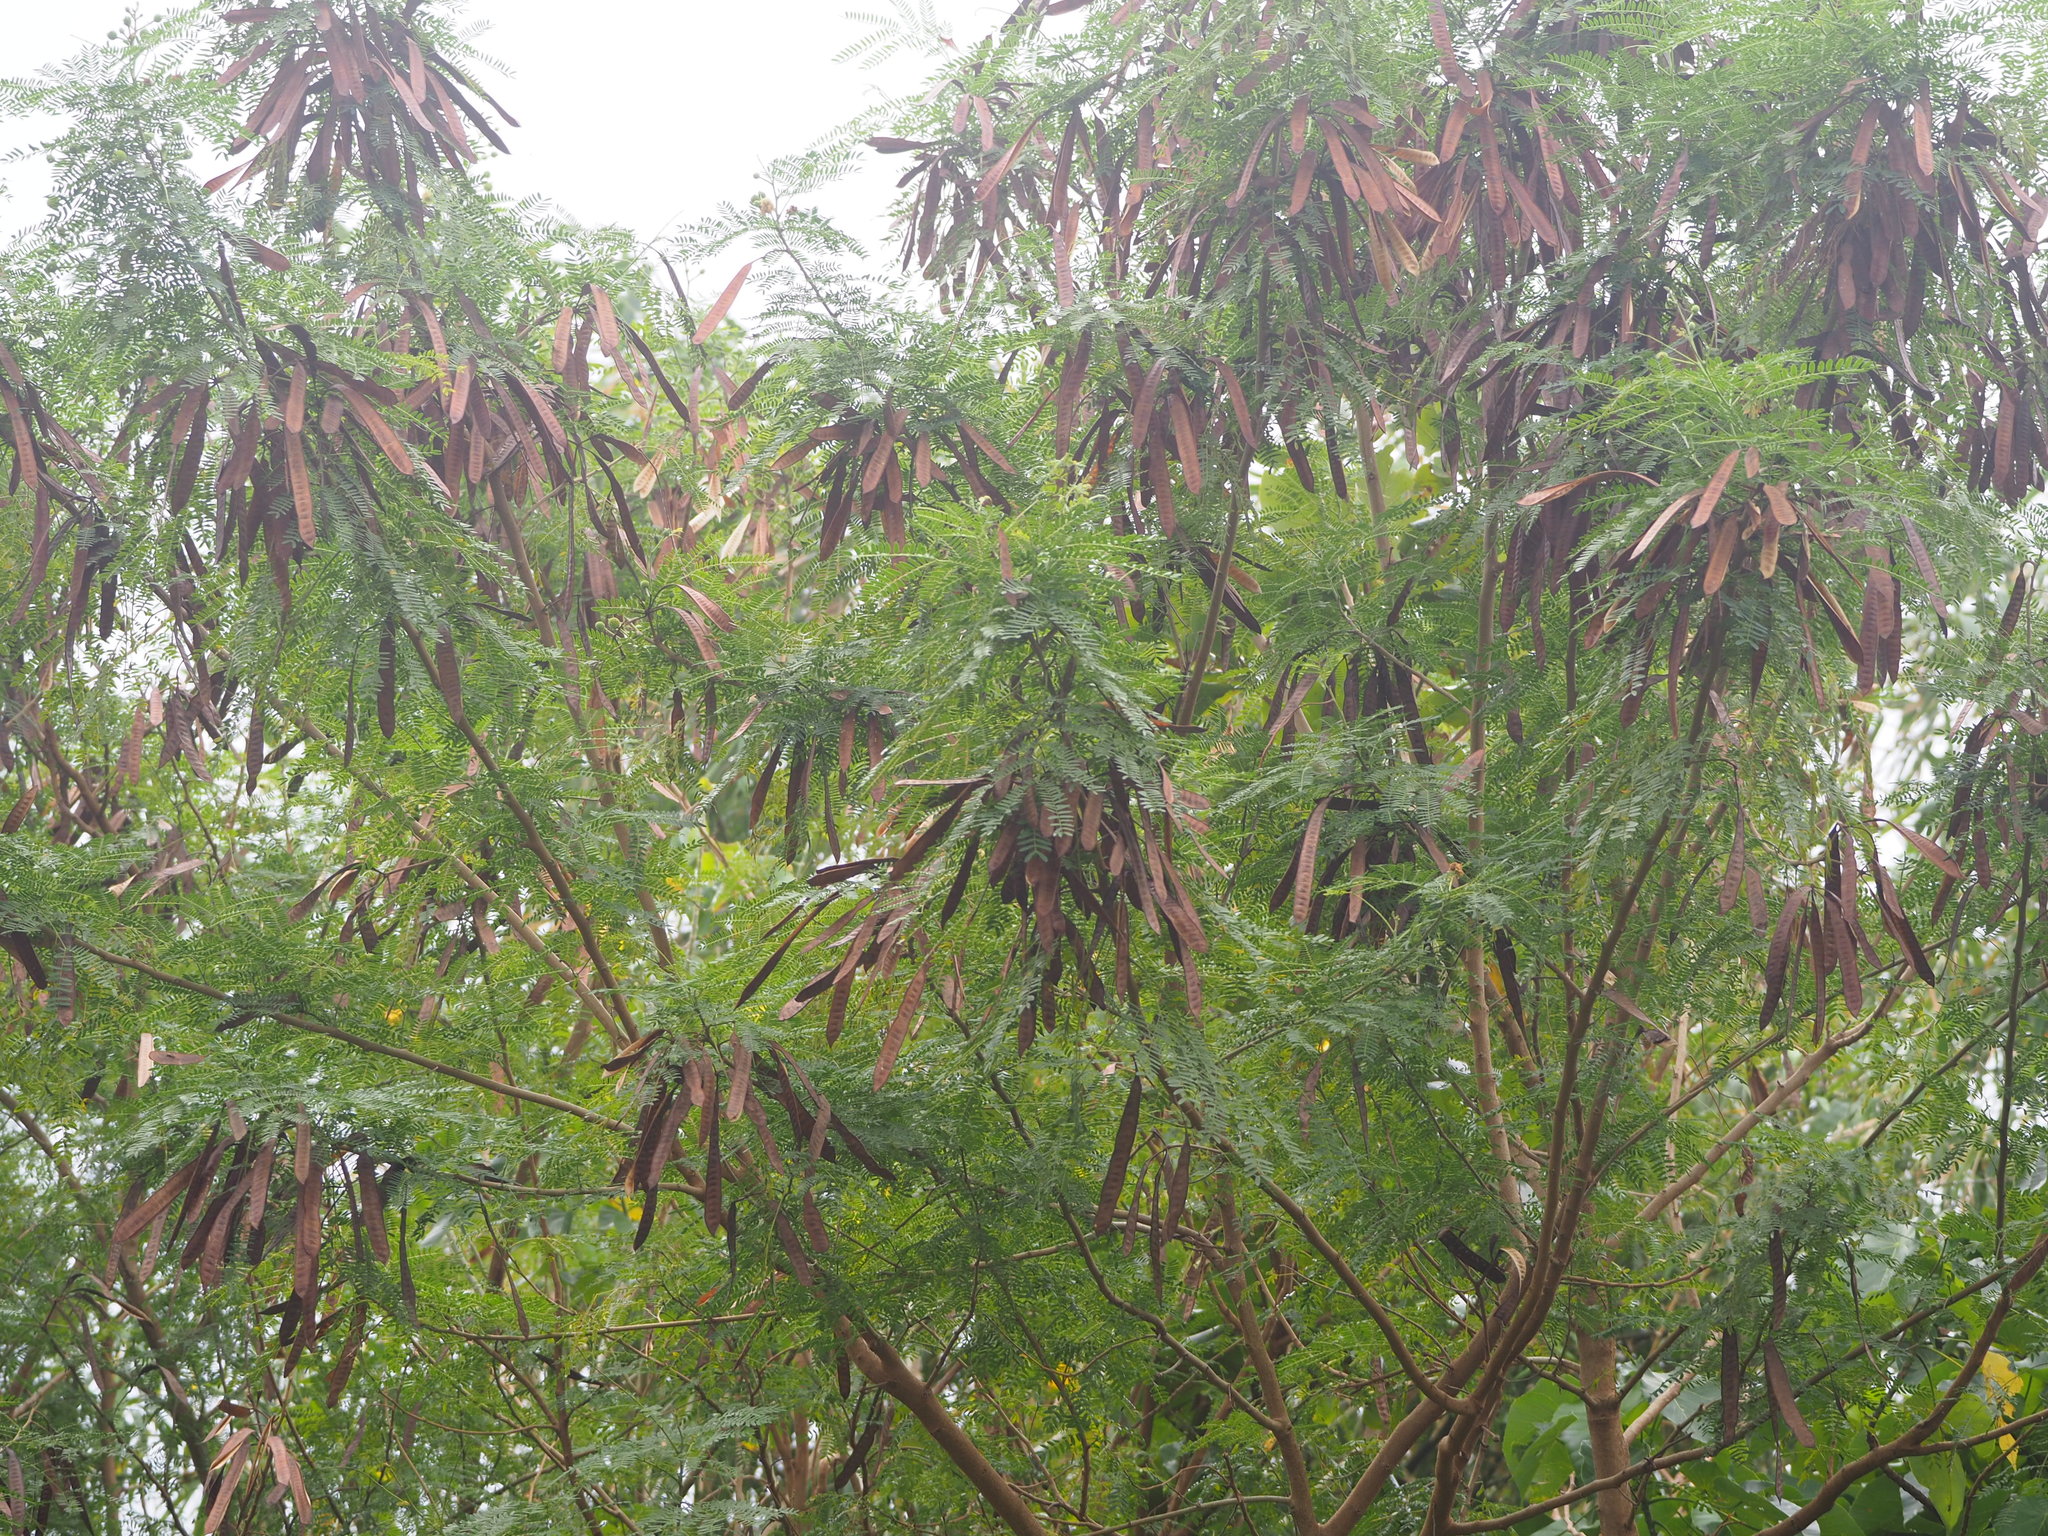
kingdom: Plantae
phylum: Tracheophyta
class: Magnoliopsida
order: Fabales
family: Fabaceae
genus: Leucaena
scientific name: Leucaena leucocephala
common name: White leadtree
